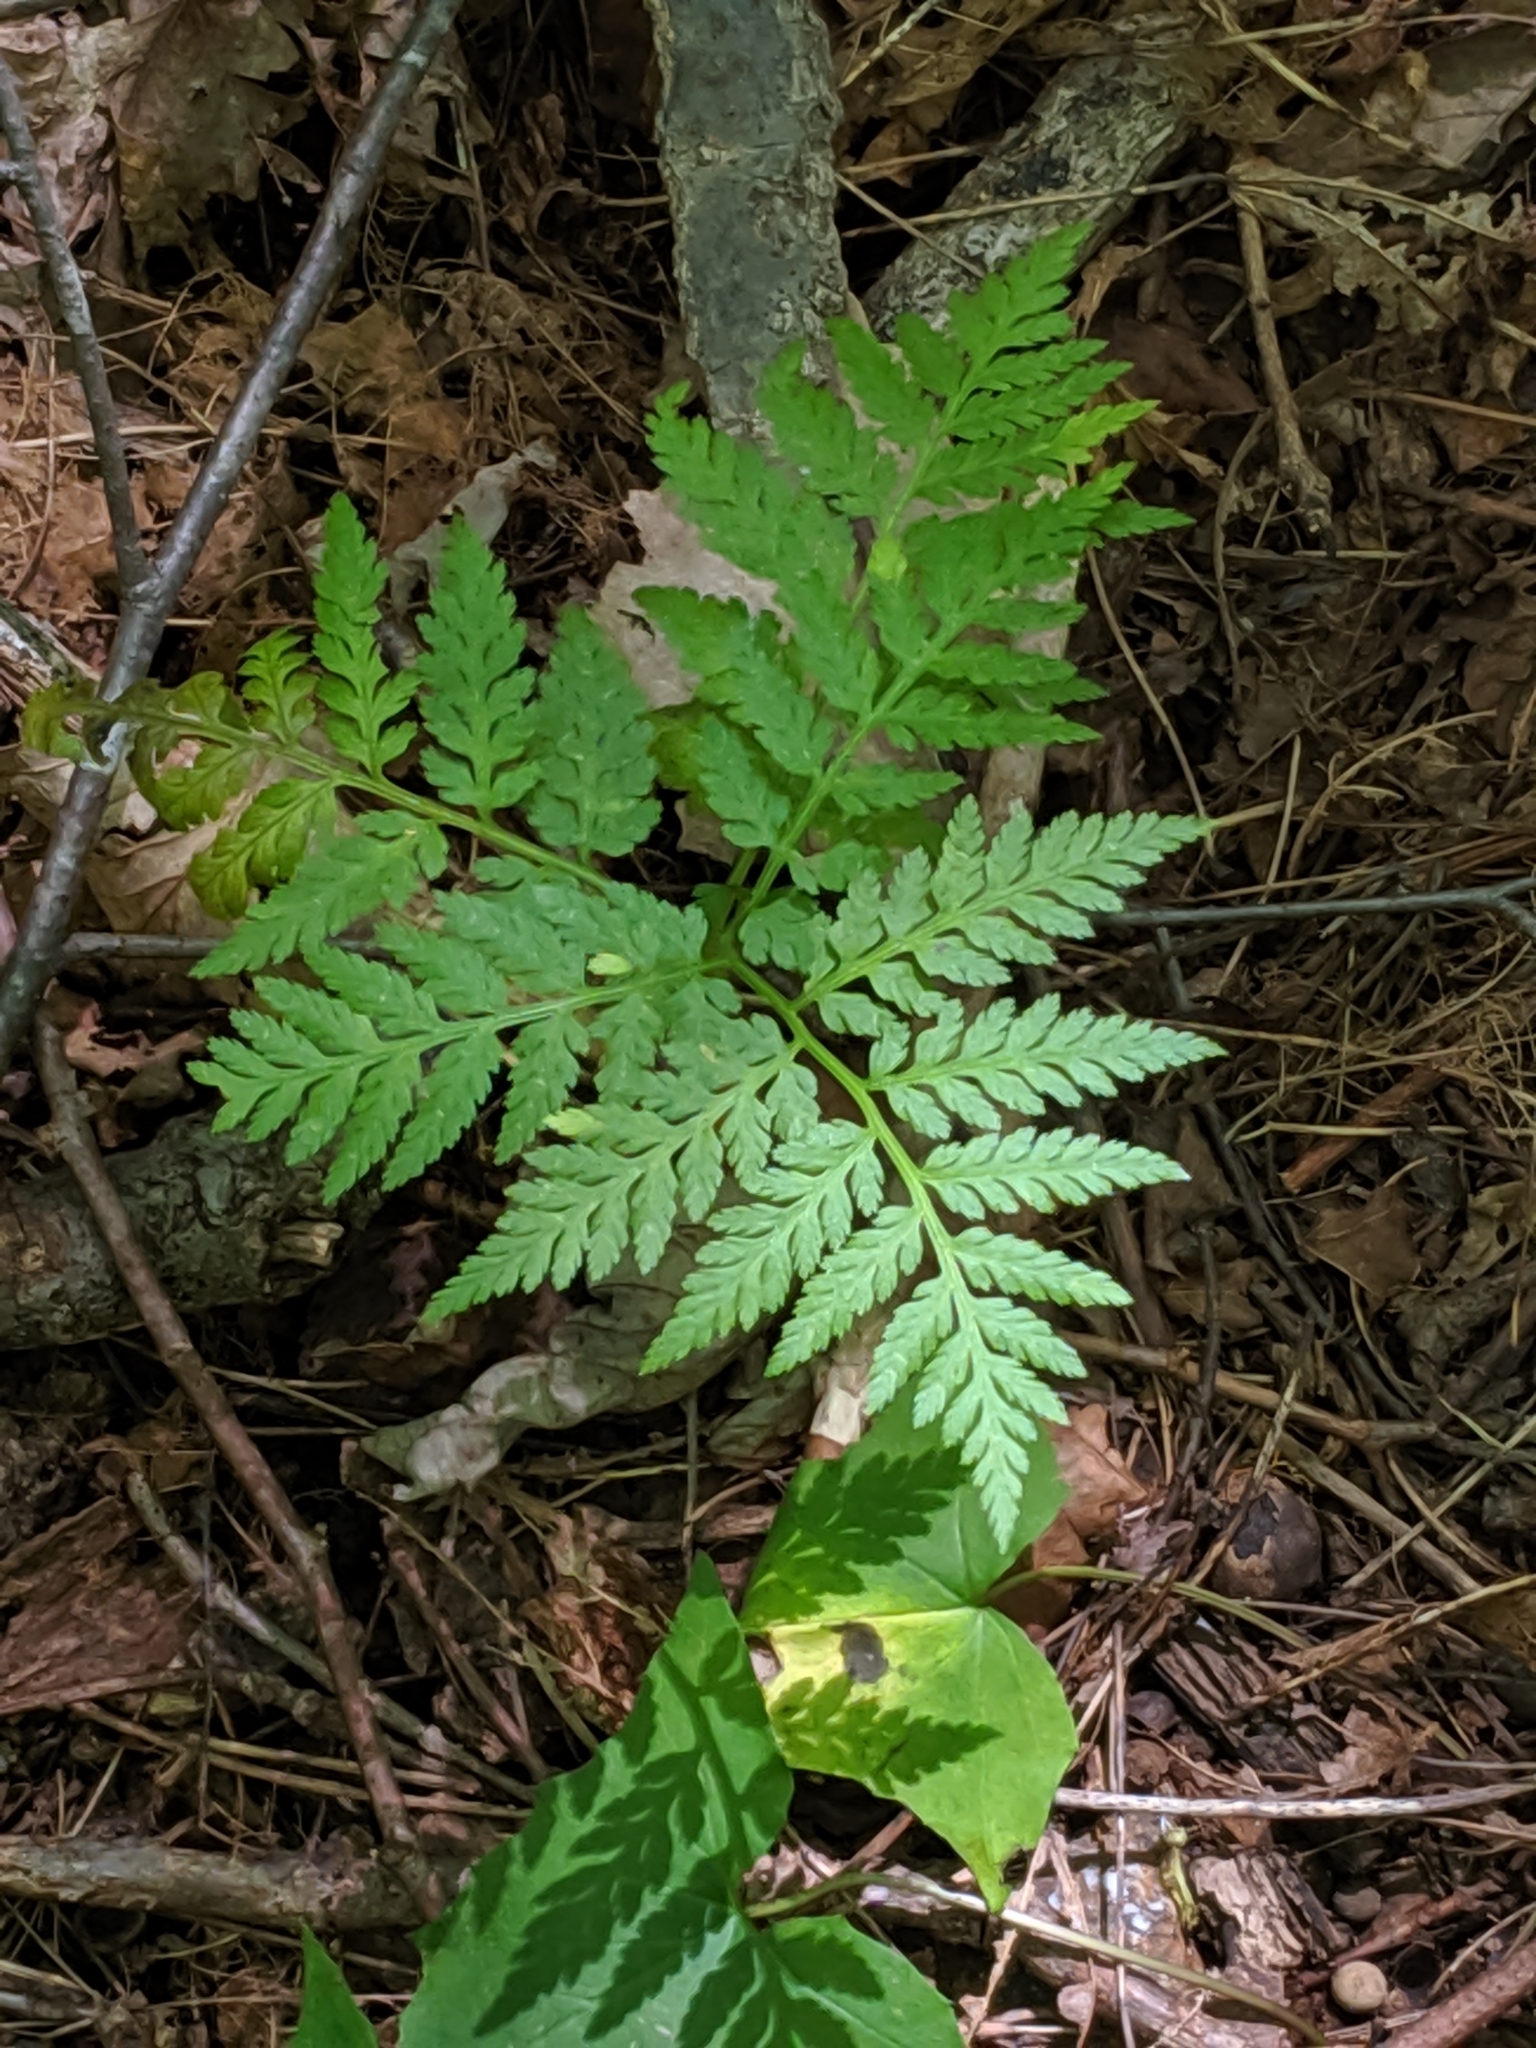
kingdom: Plantae
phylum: Tracheophyta
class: Polypodiopsida
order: Ophioglossales
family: Ophioglossaceae
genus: Botrypus
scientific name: Botrypus virginianus
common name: Common grapefern
